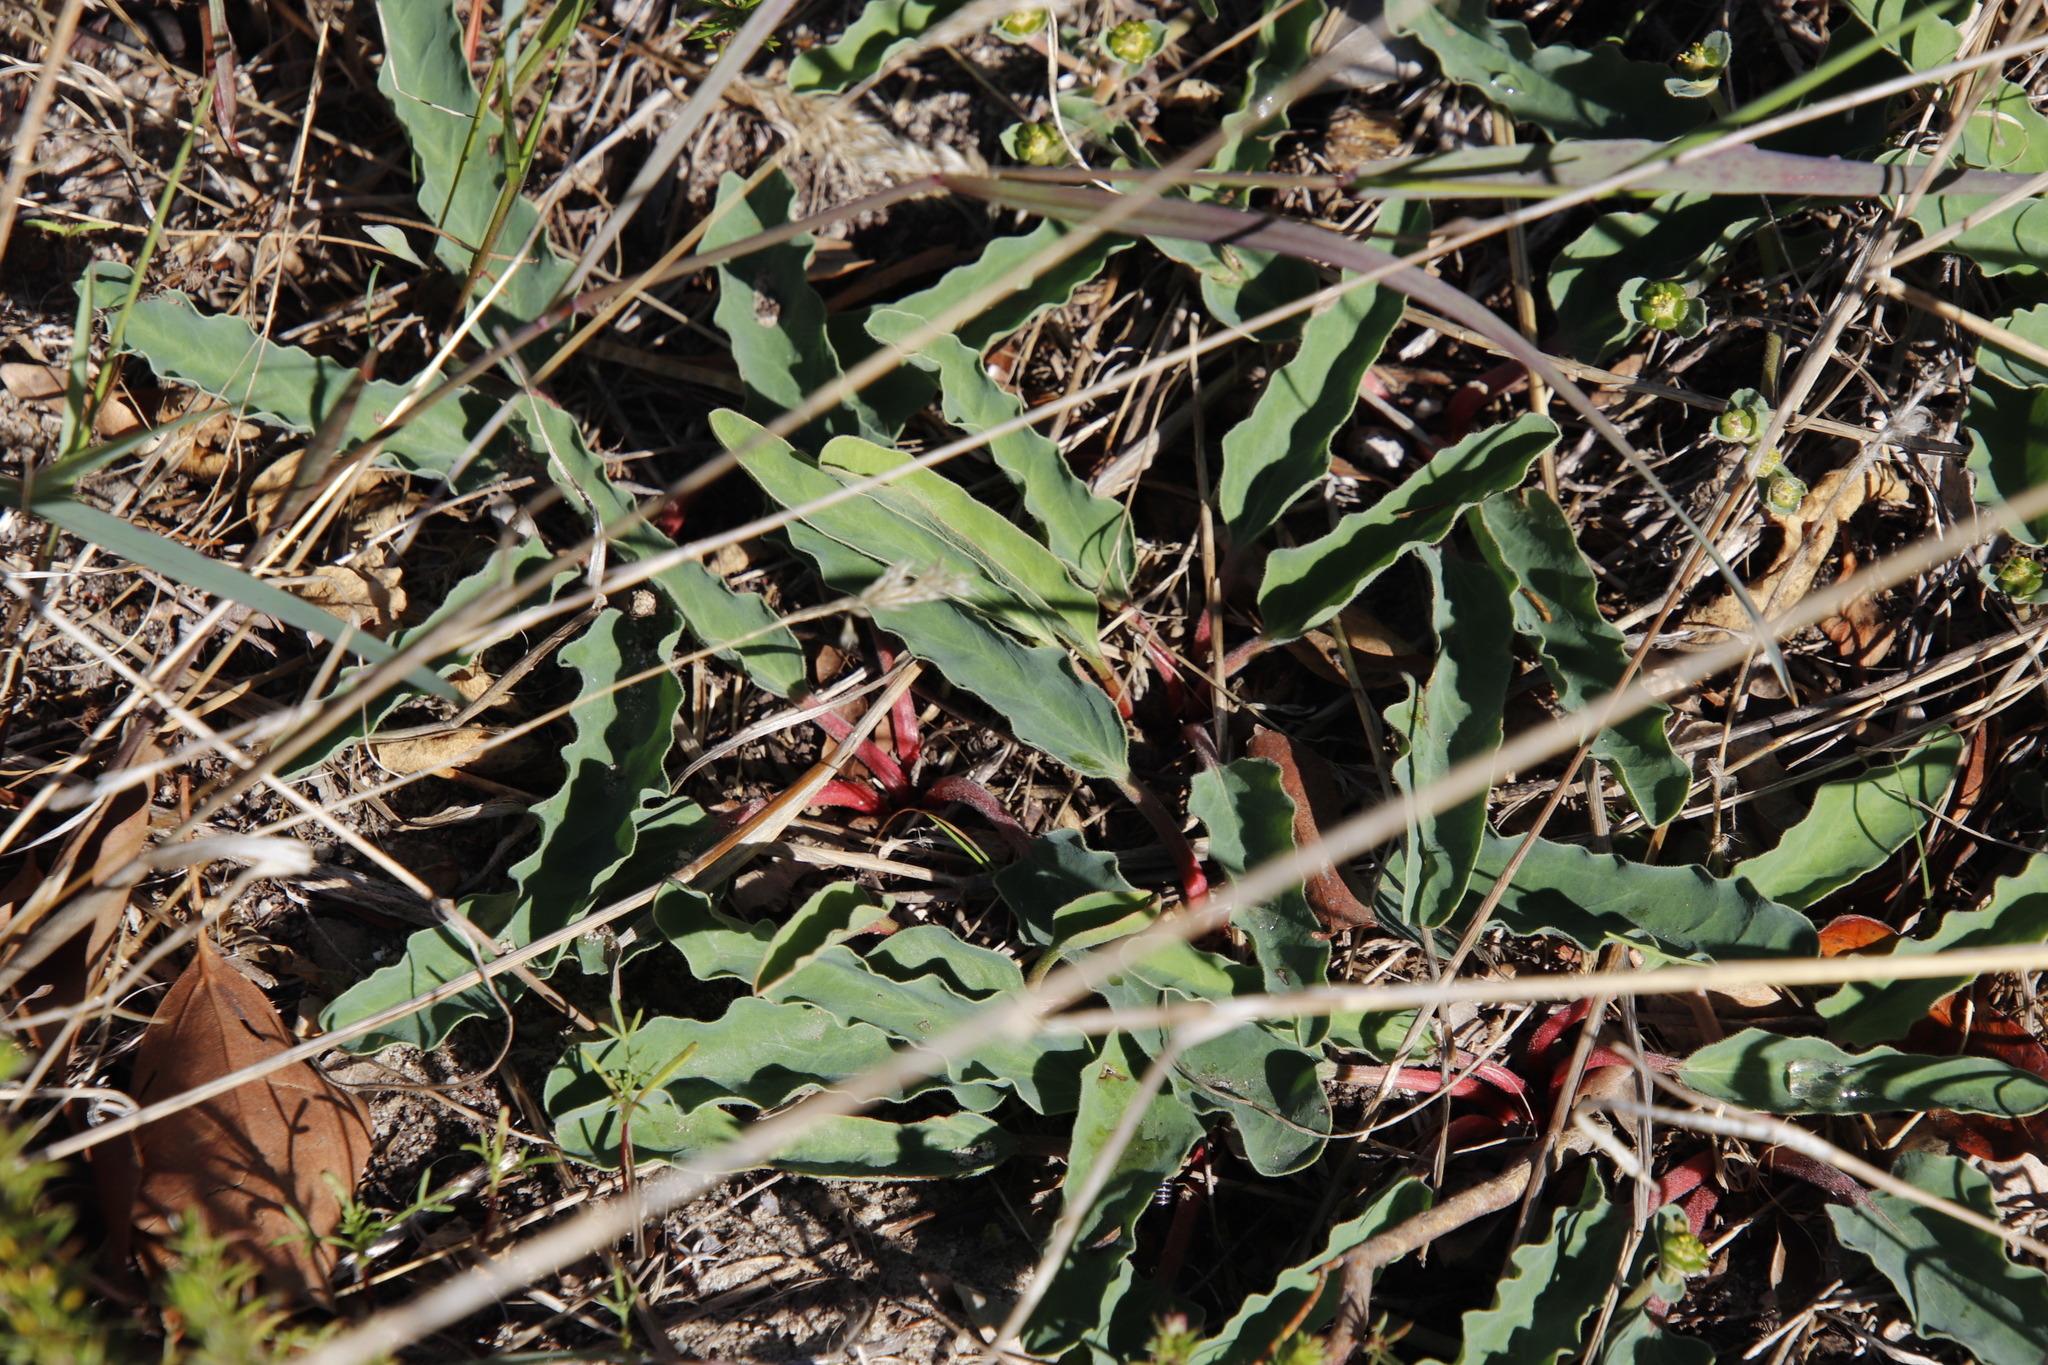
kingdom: Plantae
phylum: Tracheophyta
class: Magnoliopsida
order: Malpighiales
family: Euphorbiaceae
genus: Euphorbia
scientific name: Euphorbia tuberosa
